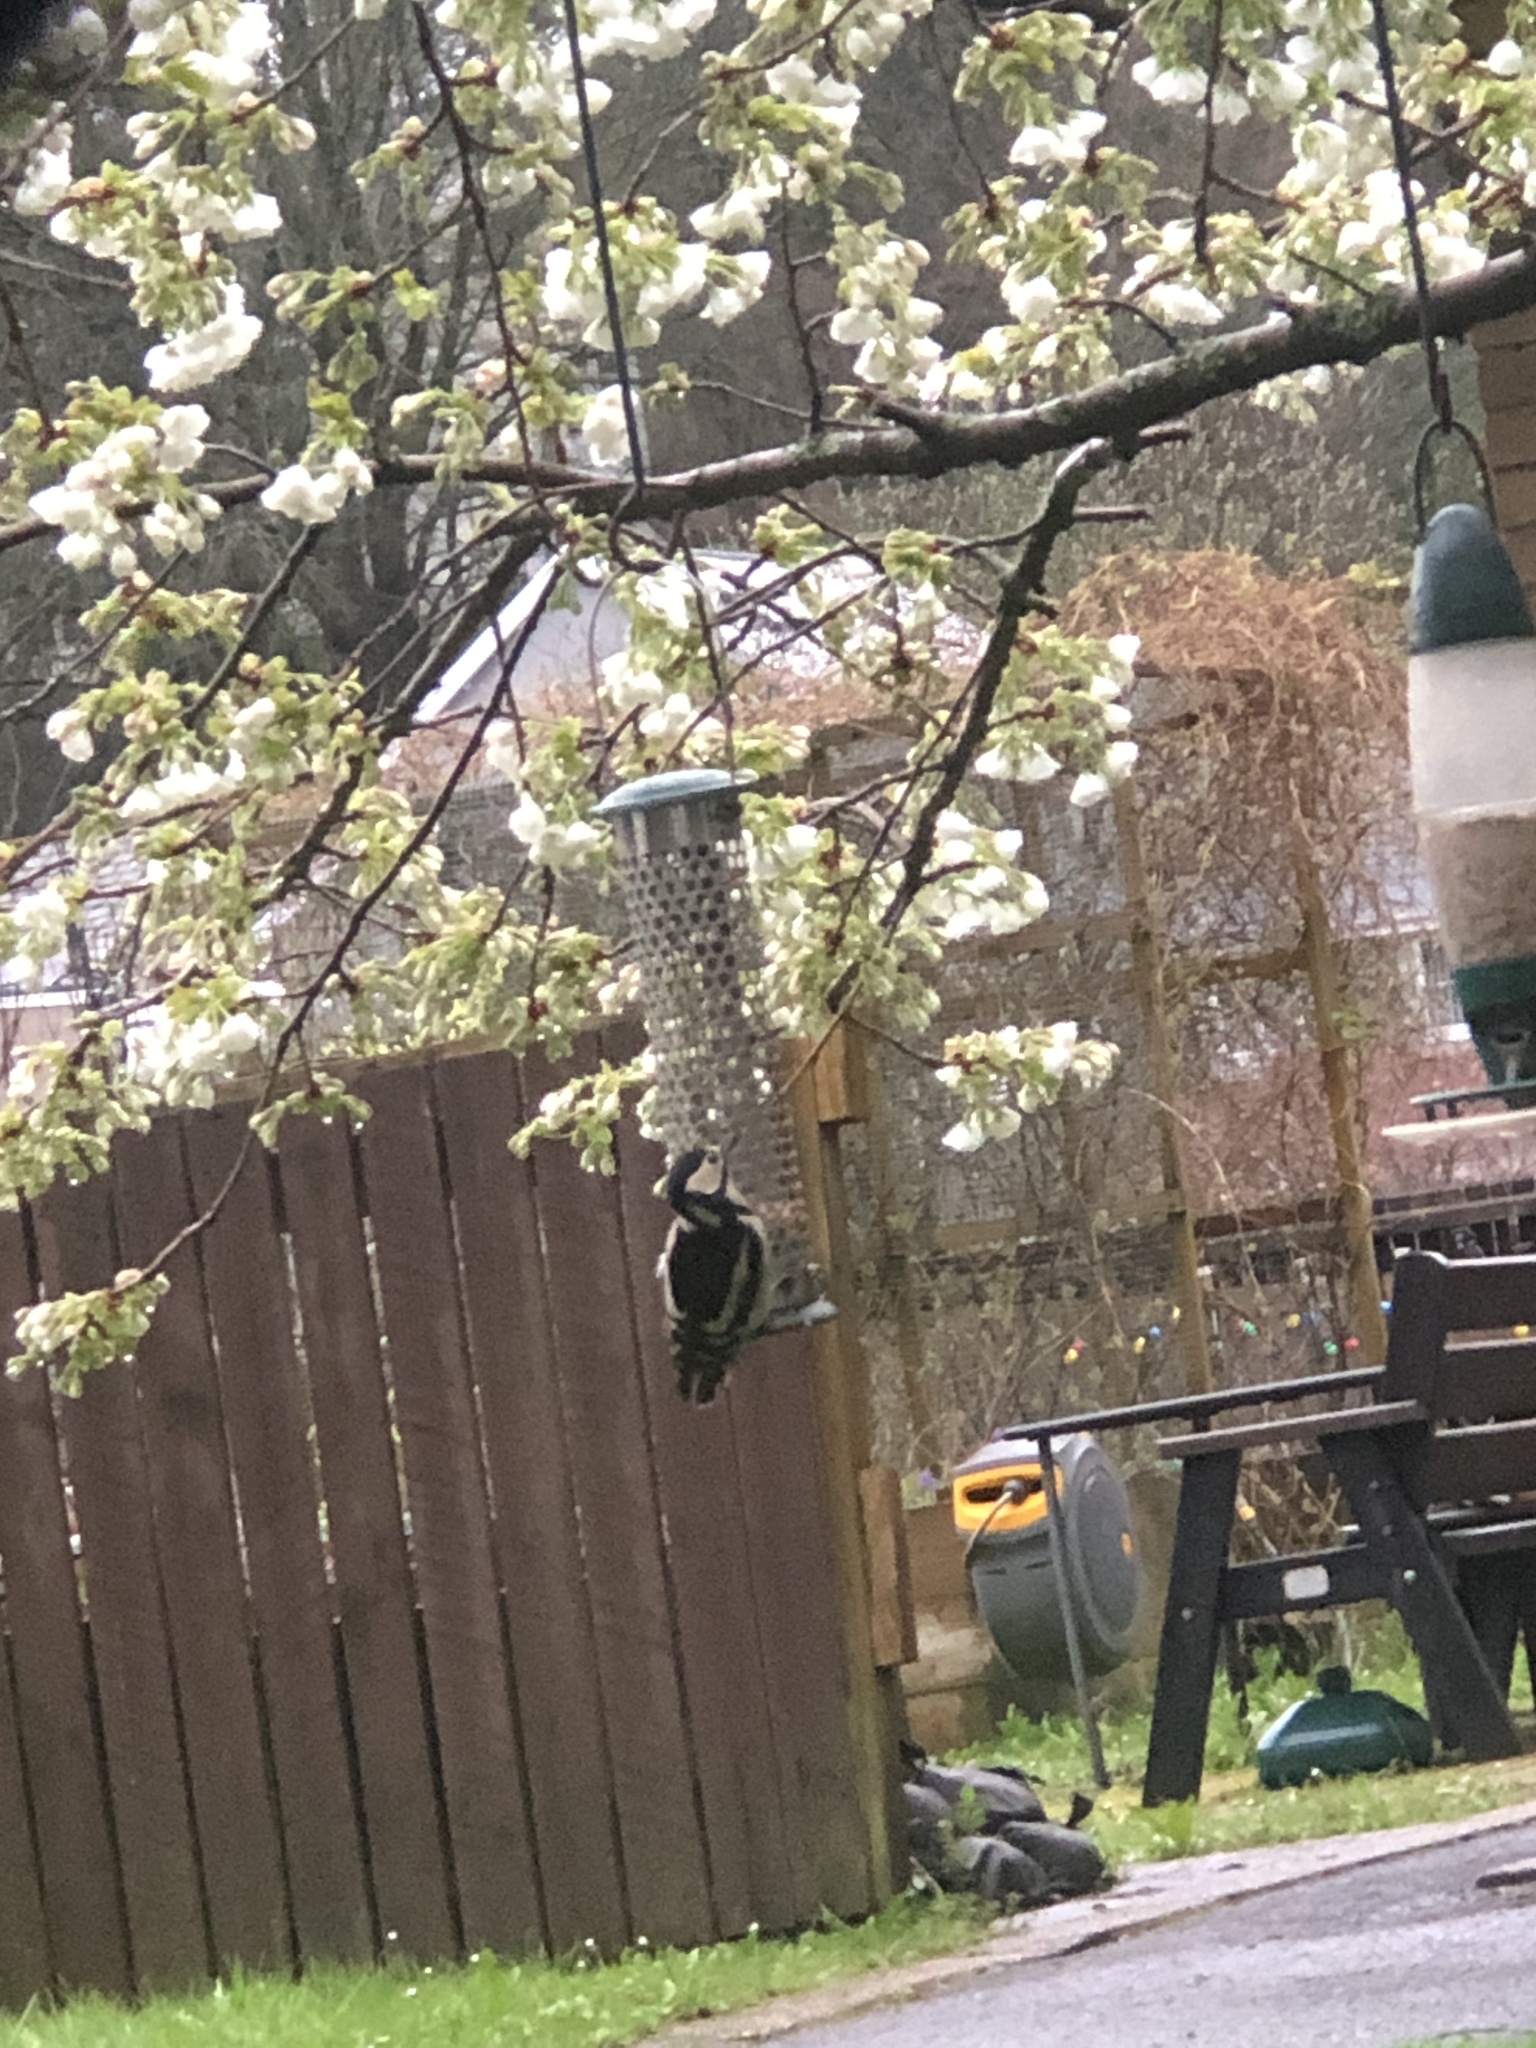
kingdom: Animalia
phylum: Chordata
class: Aves
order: Piciformes
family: Picidae
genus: Dendrocopos
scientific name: Dendrocopos major
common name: Great spotted woodpecker
